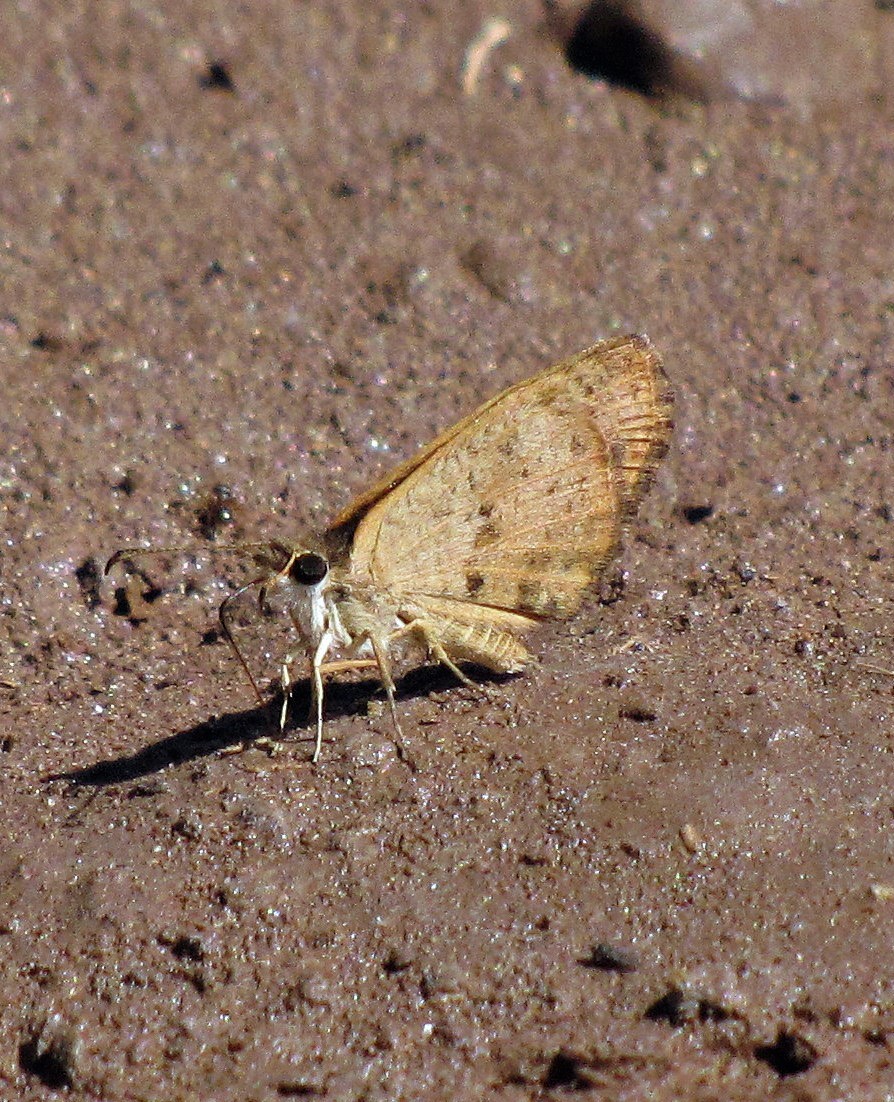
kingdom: Animalia
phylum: Arthropoda
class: Insecta
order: Lepidoptera
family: Hesperiidae
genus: Zopyrion
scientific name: Zopyrion evenor
